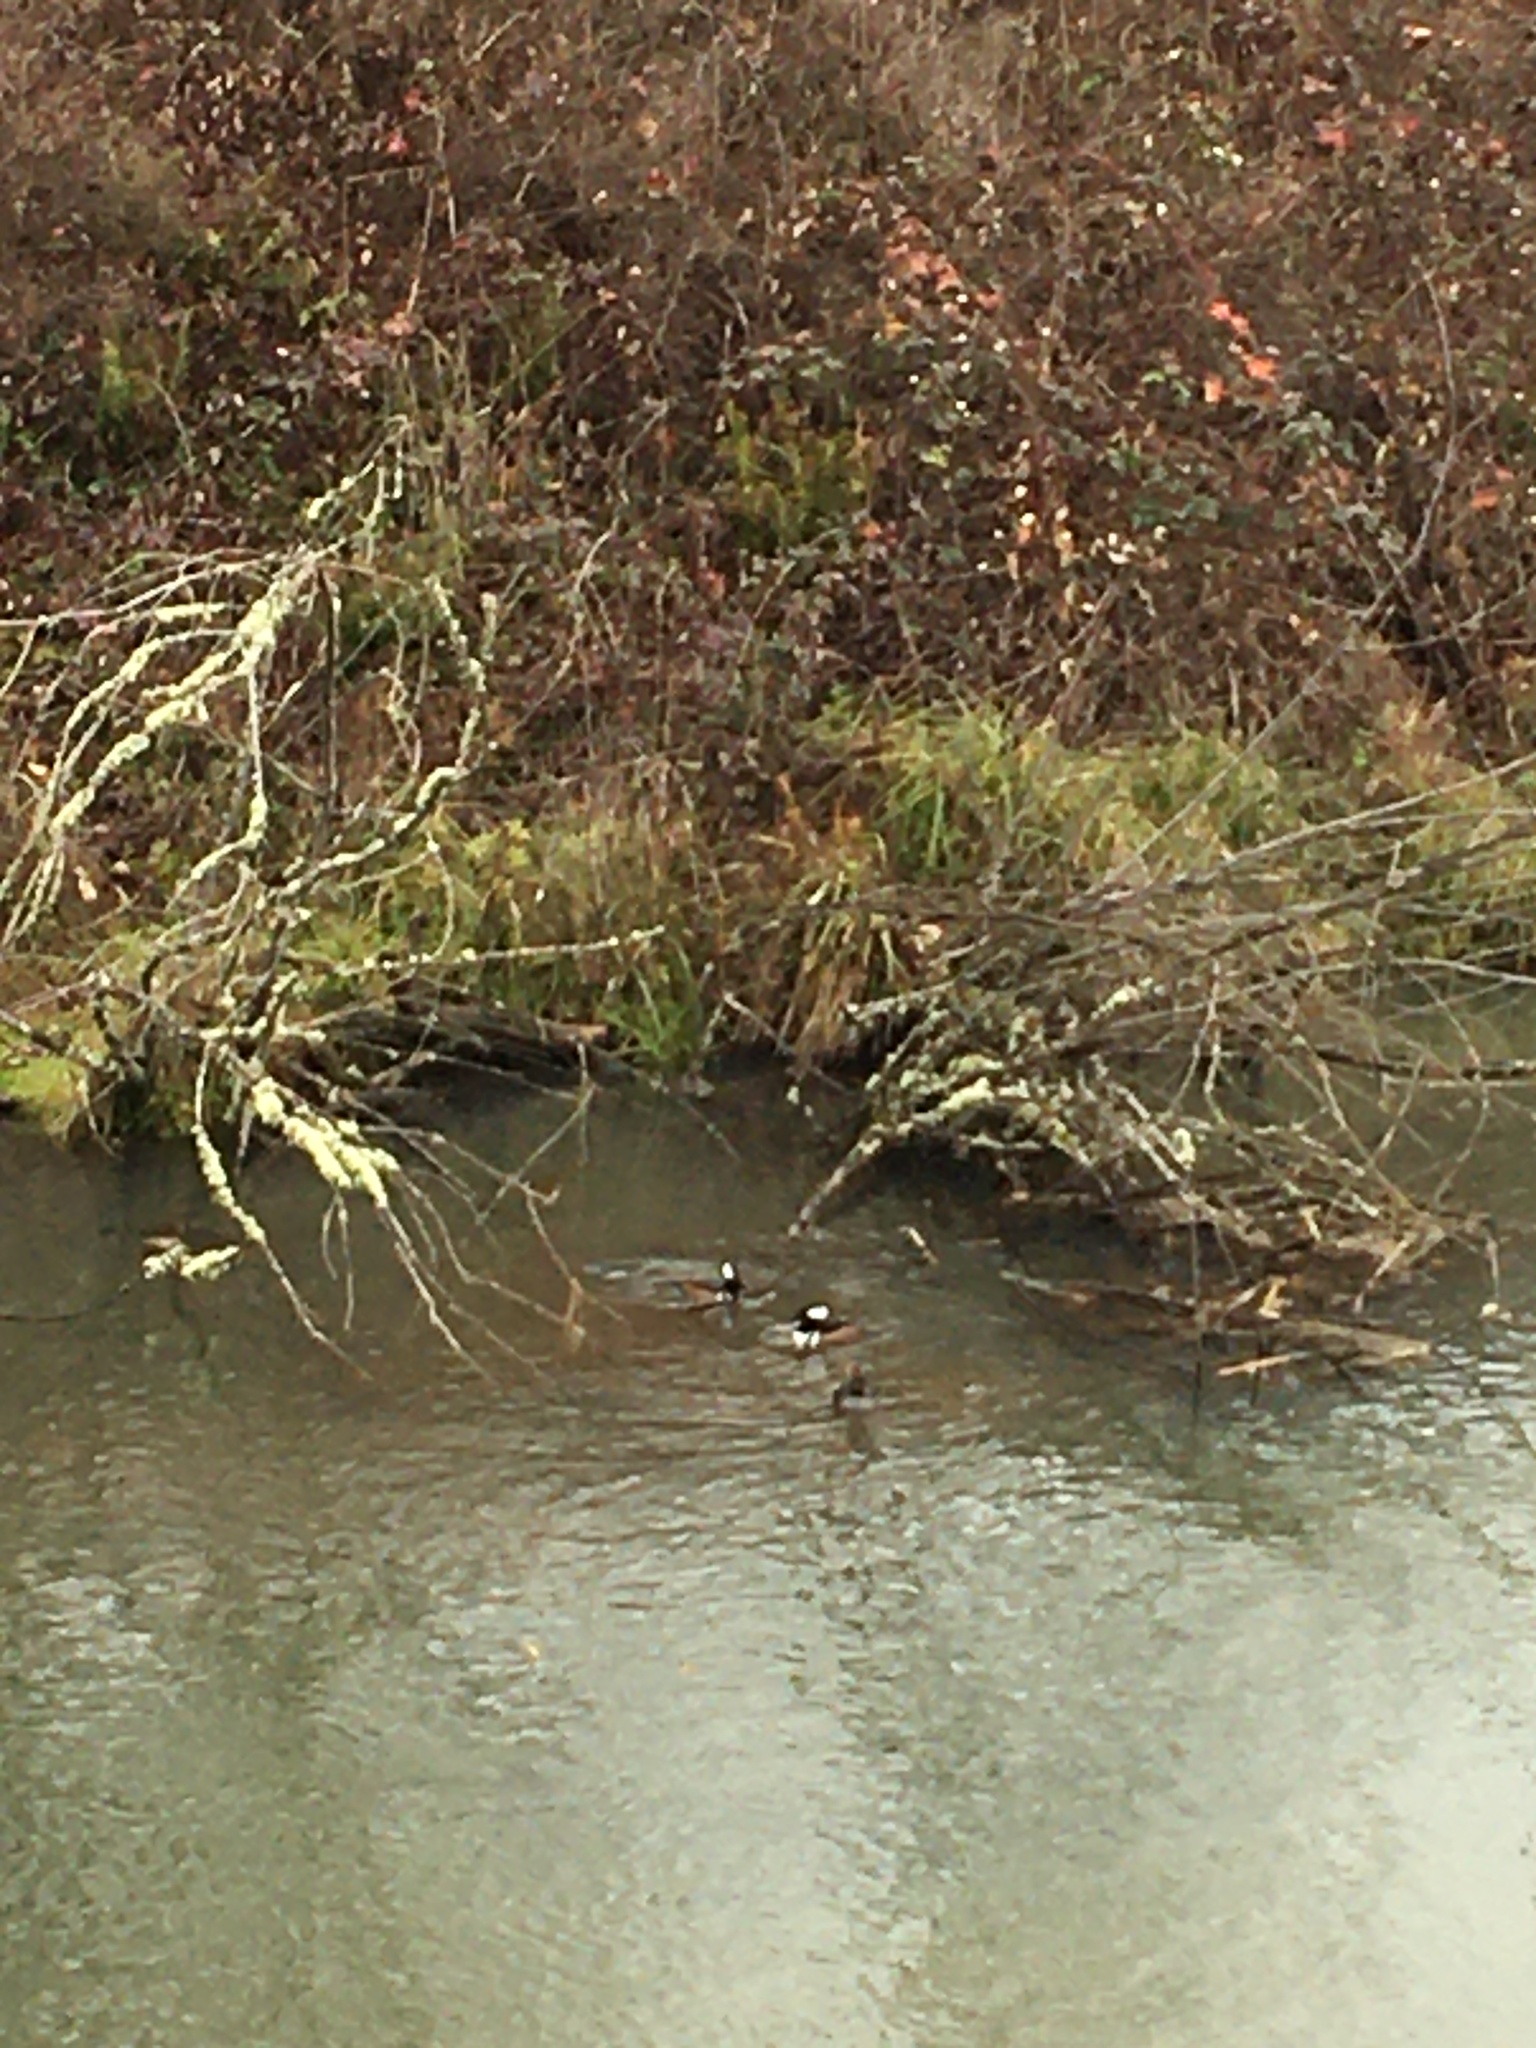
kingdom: Animalia
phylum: Chordata
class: Aves
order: Anseriformes
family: Anatidae
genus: Lophodytes
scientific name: Lophodytes cucullatus
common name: Hooded merganser
